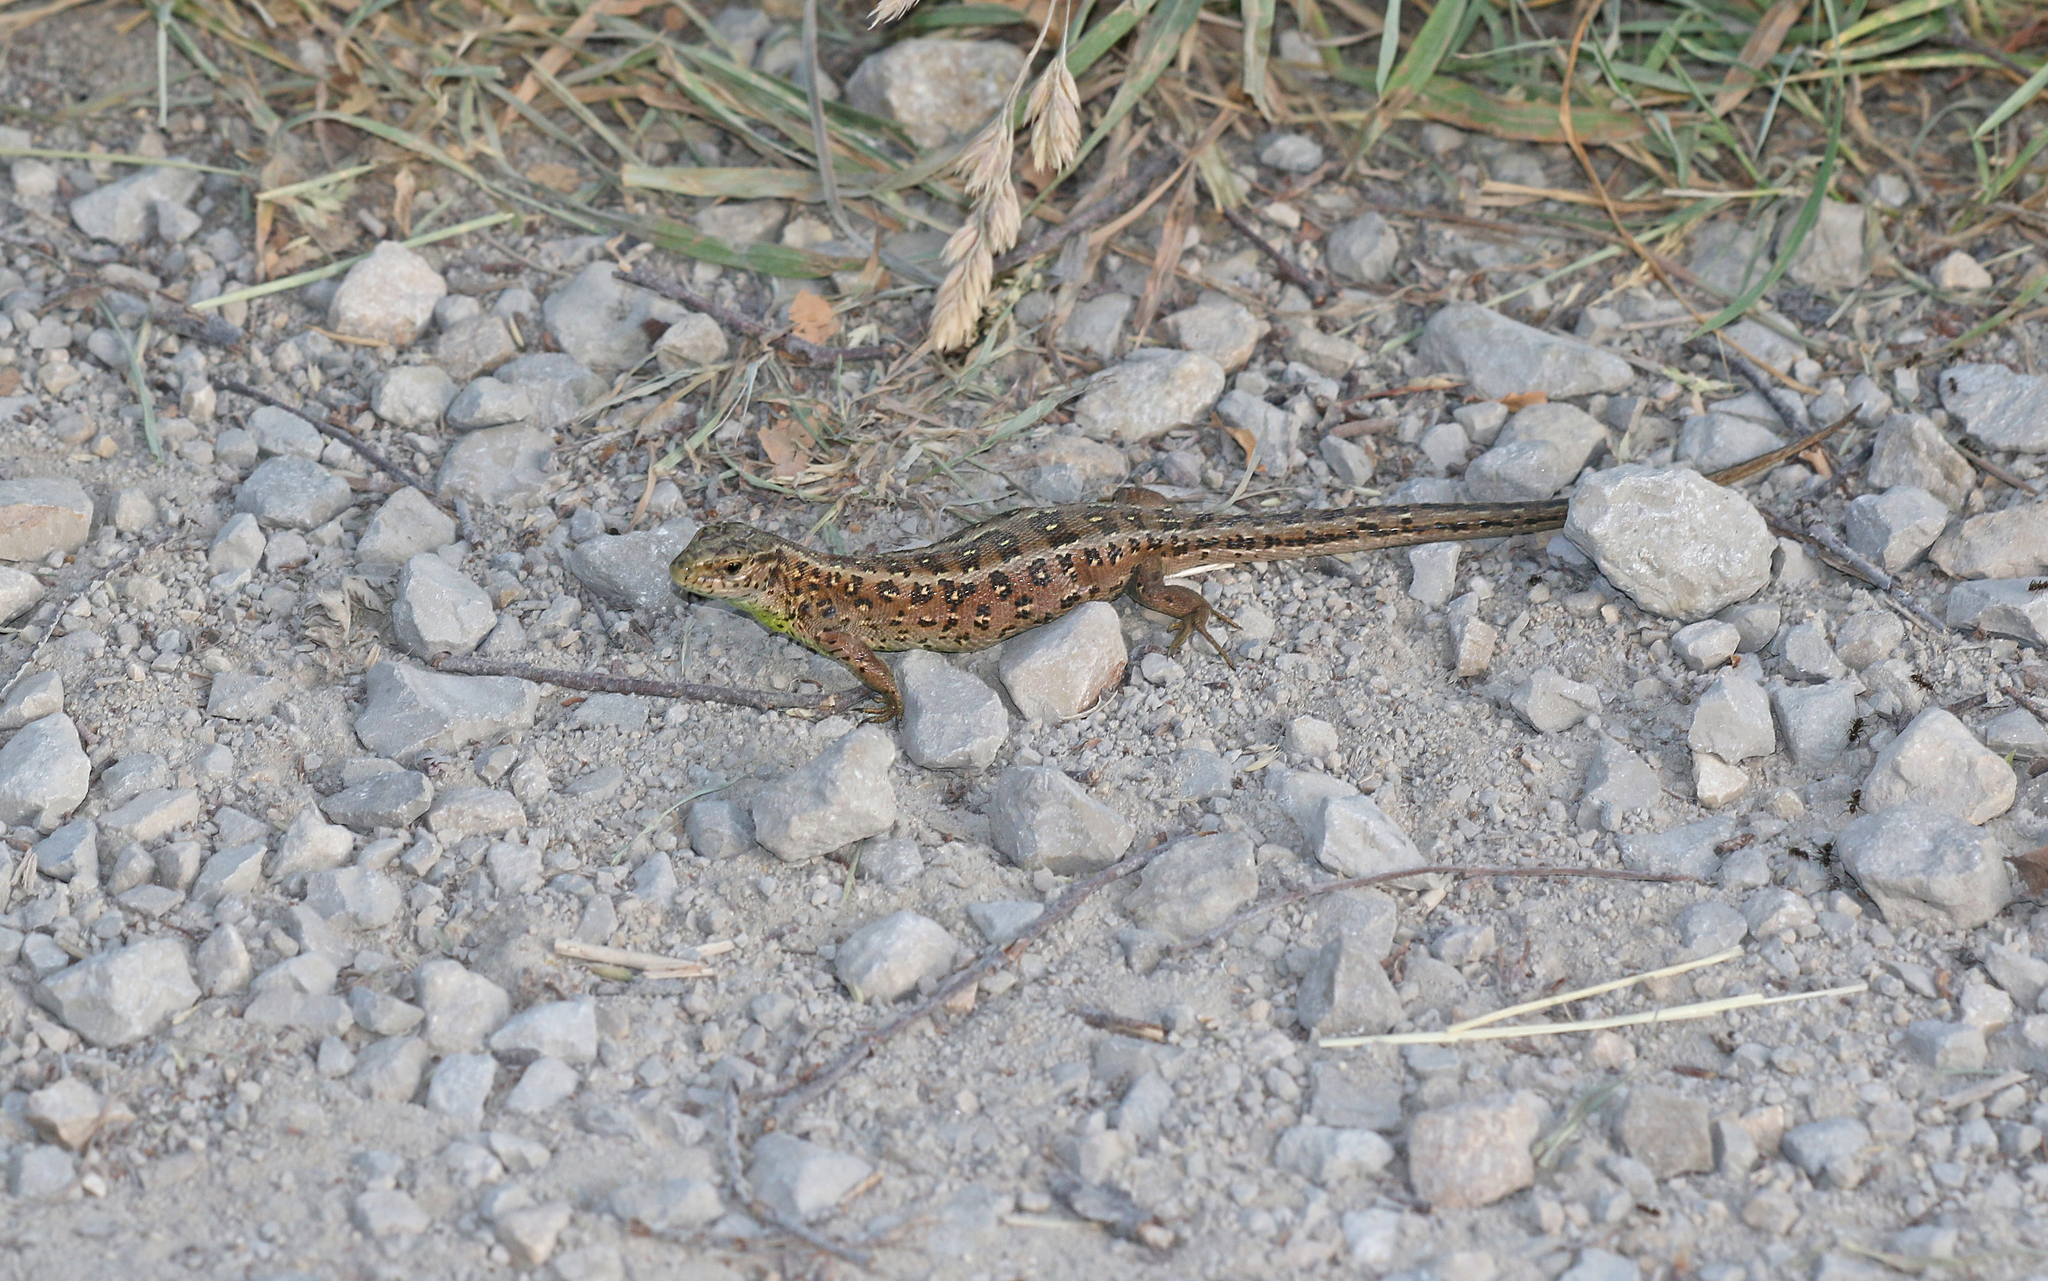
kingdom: Animalia
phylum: Chordata
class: Squamata
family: Lacertidae
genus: Lacerta
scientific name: Lacerta agilis
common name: Sand lizard
